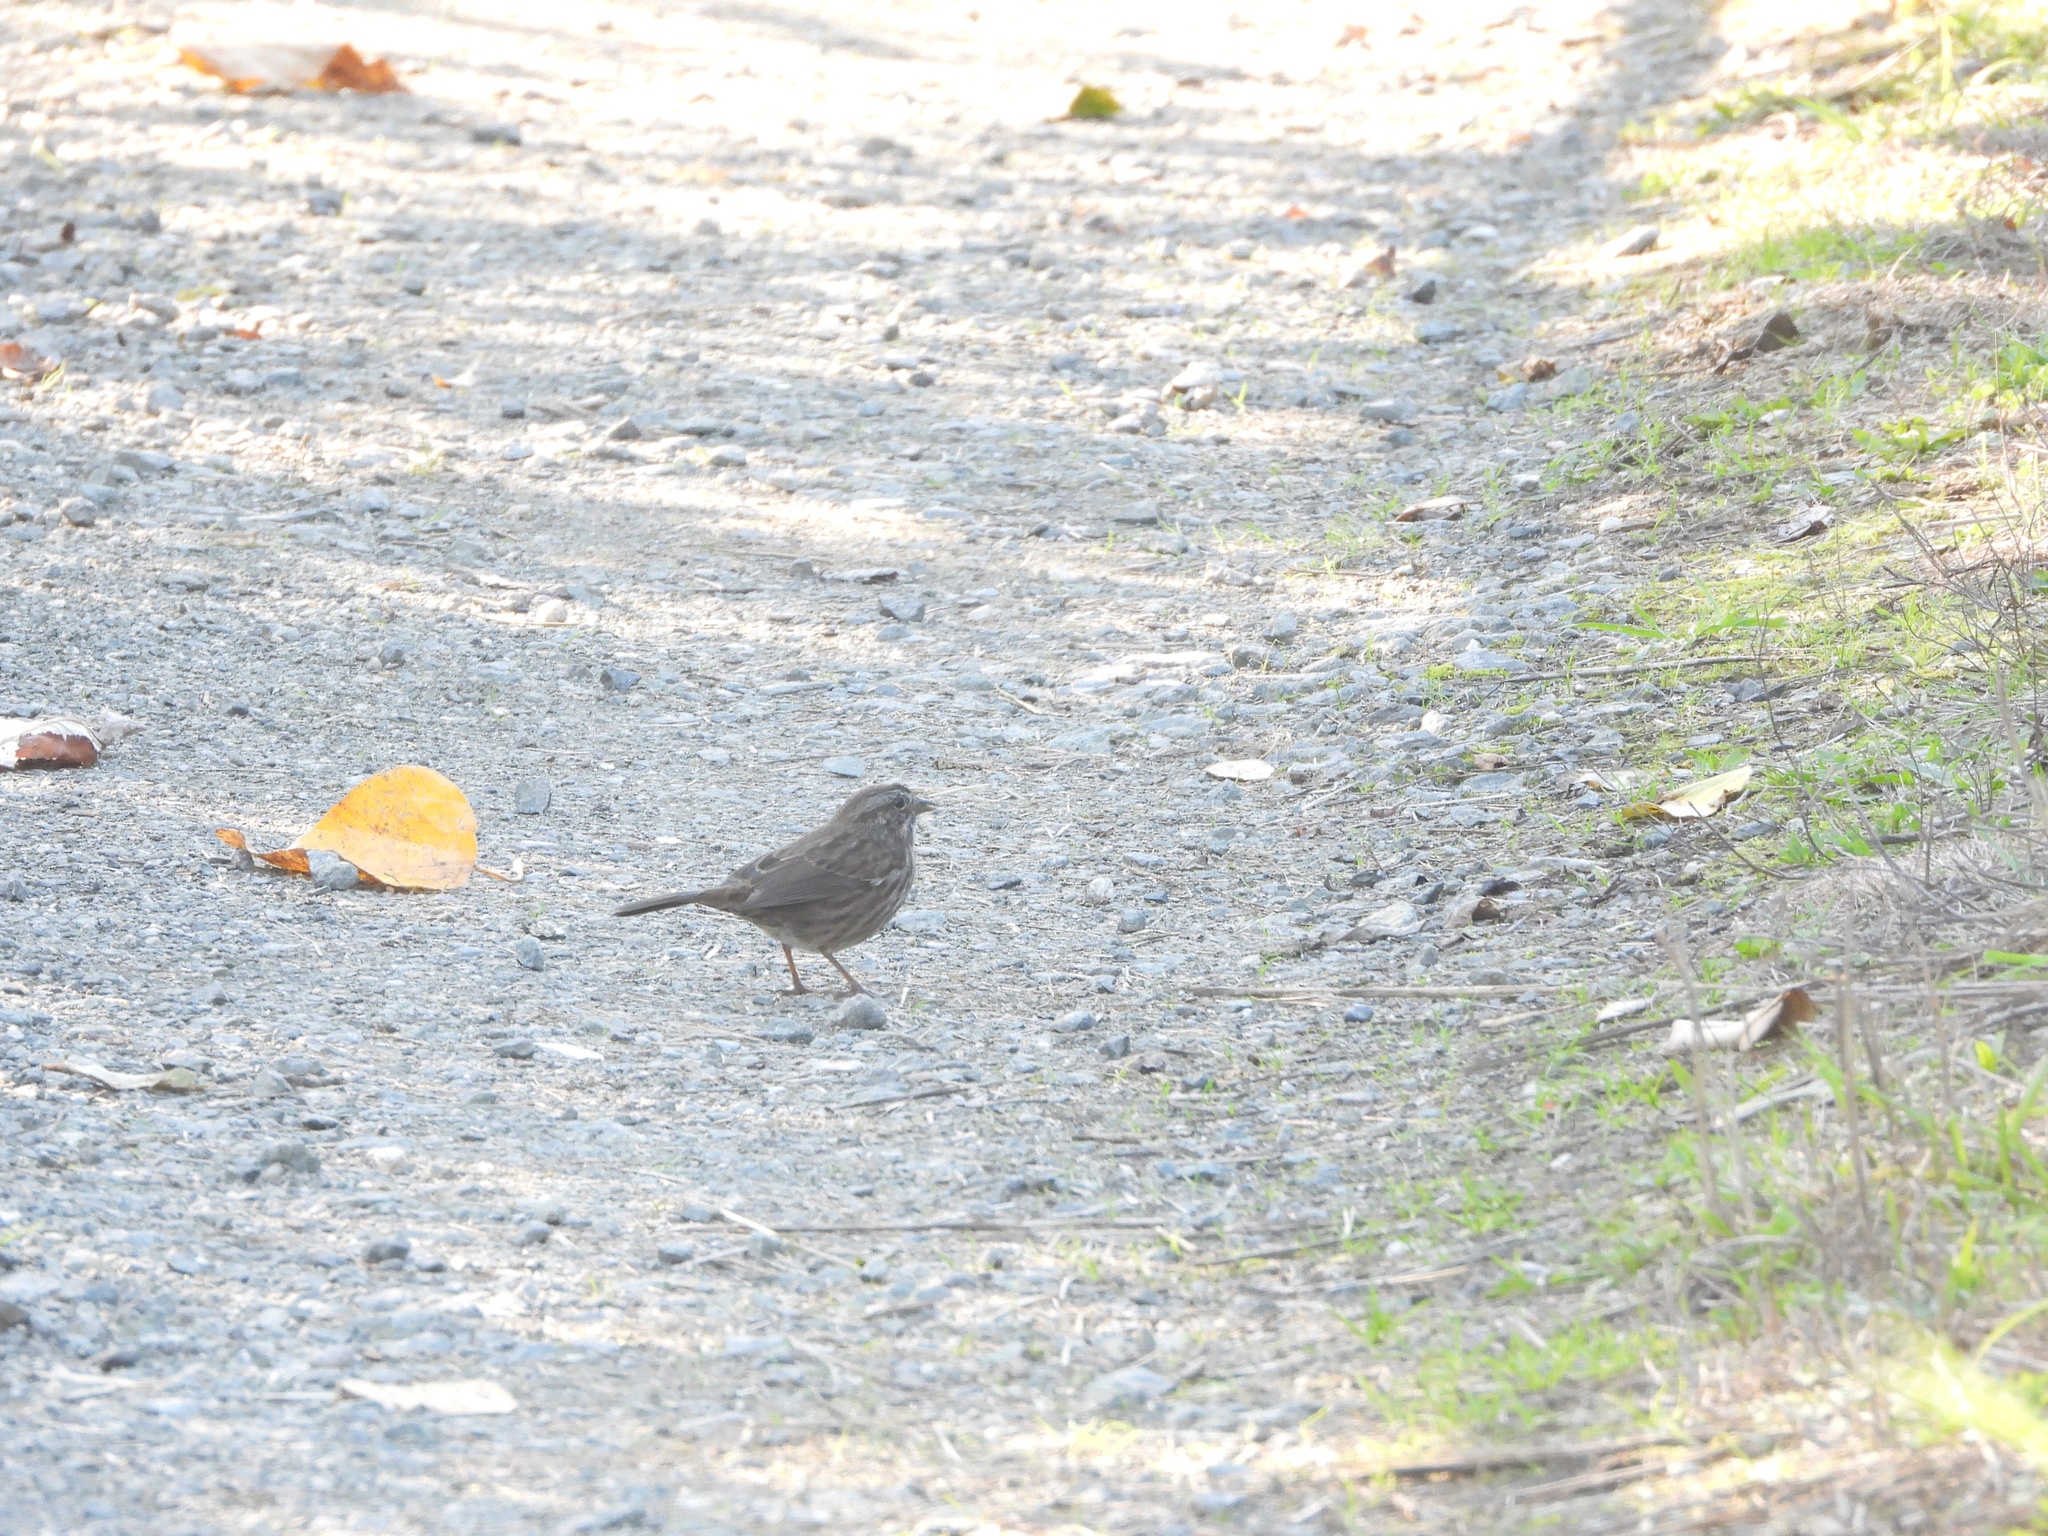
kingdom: Animalia
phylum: Chordata
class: Aves
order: Passeriformes
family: Passerellidae
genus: Melospiza
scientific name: Melospiza melodia
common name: Song sparrow
